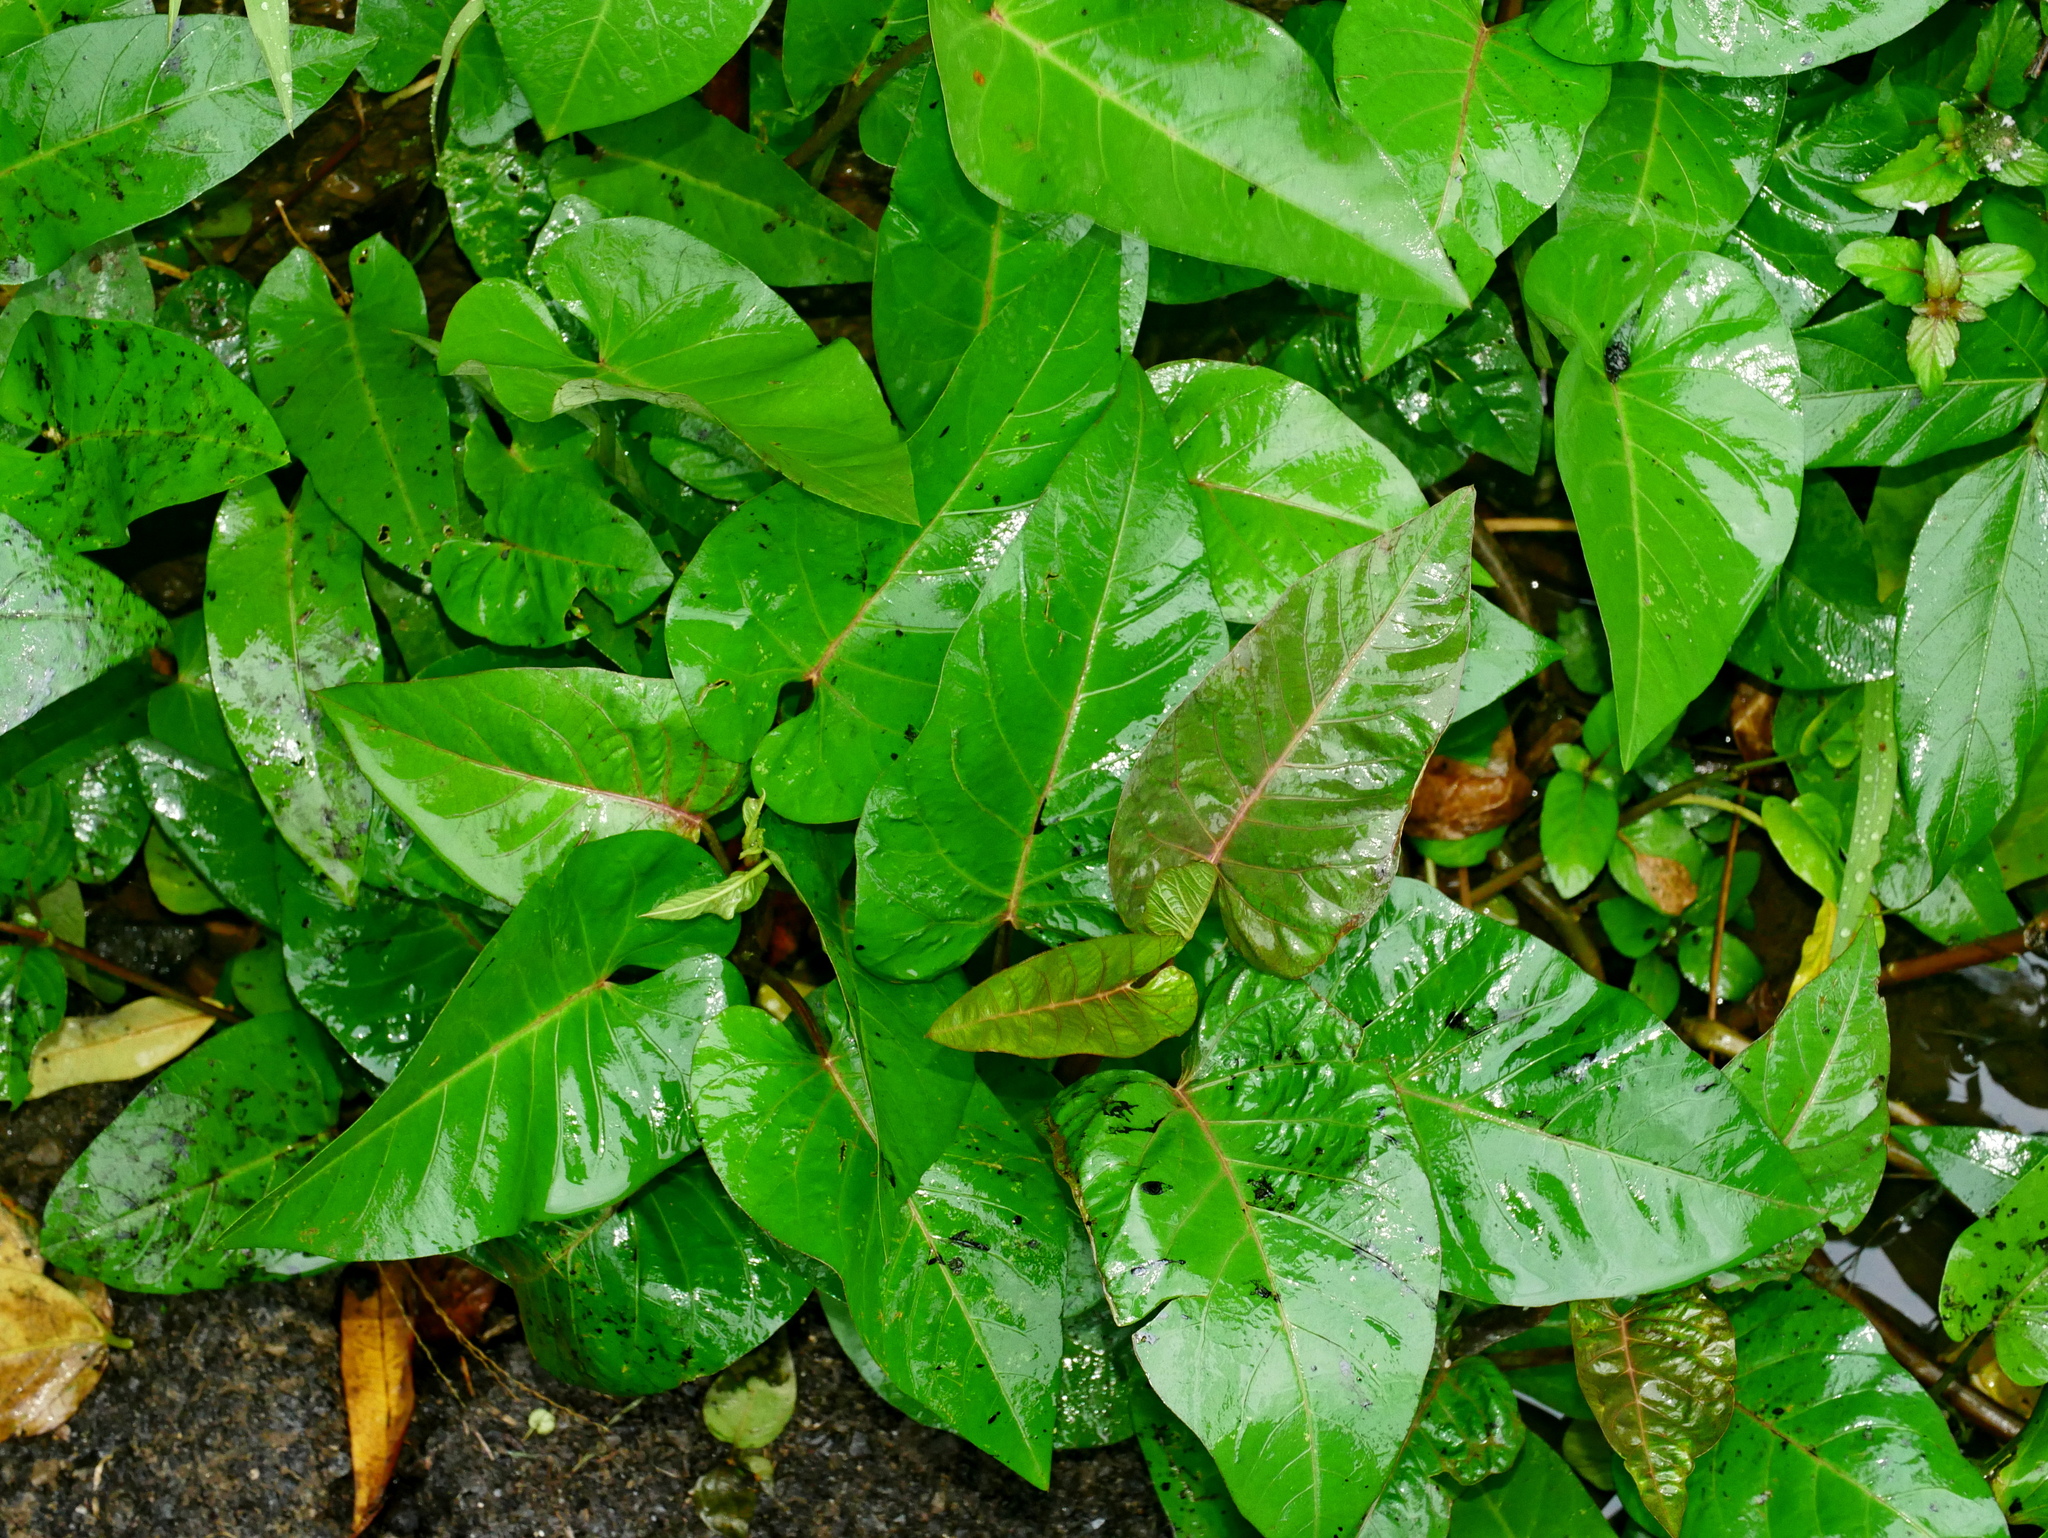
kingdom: Plantae
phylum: Tracheophyta
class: Magnoliopsida
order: Solanales
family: Convolvulaceae
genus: Ipomoea
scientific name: Ipomoea aquatica
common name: Swamp morning-glory
